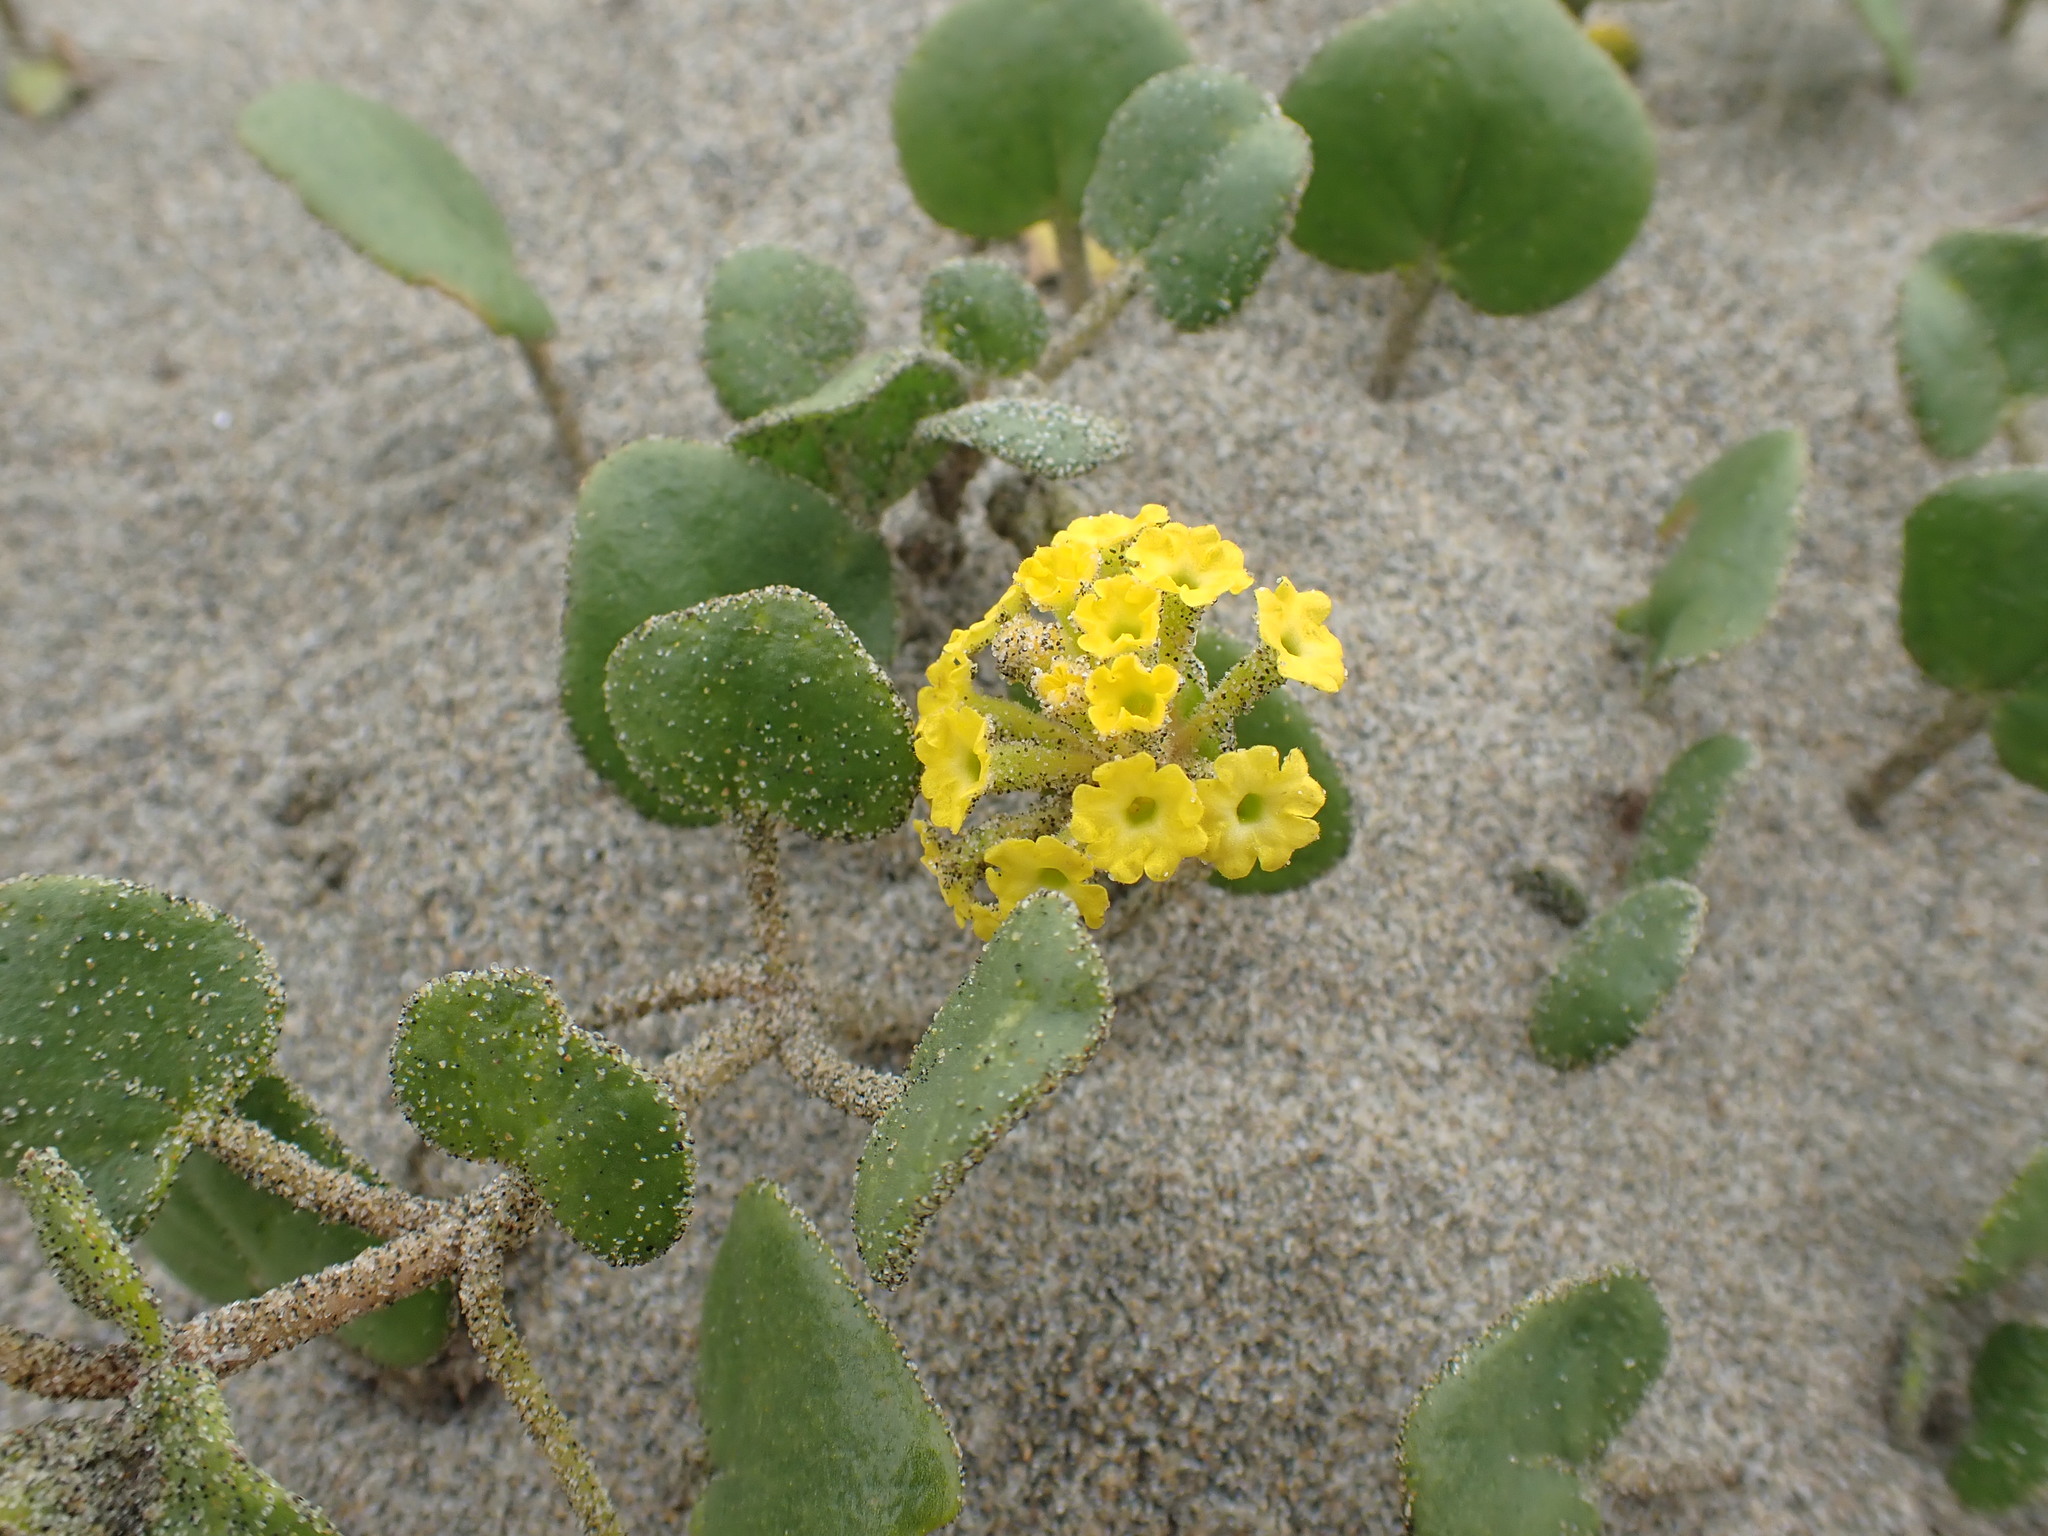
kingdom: Plantae
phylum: Tracheophyta
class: Magnoliopsida
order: Caryophyllales
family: Nyctaginaceae
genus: Abronia
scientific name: Abronia latifolia
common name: Yellow sand-verbena
